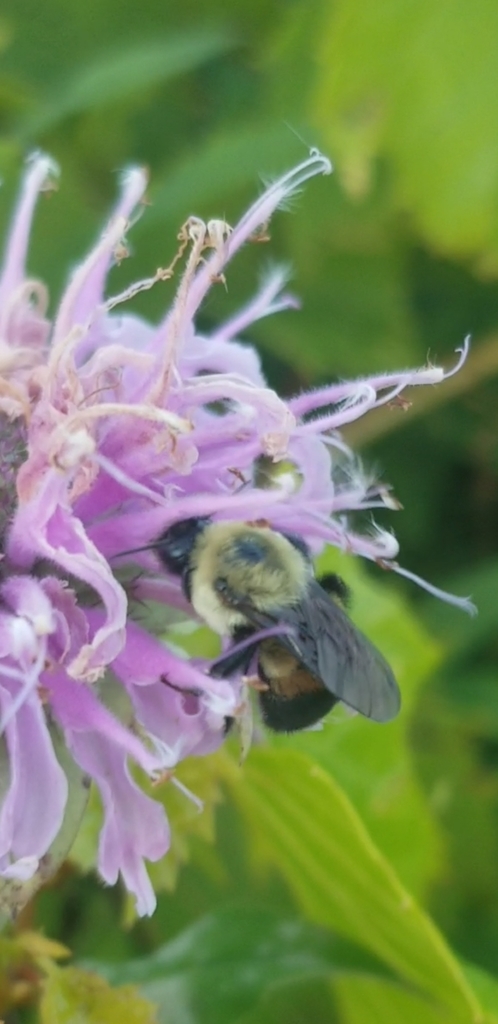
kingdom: Animalia
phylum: Arthropoda
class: Insecta
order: Hymenoptera
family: Apidae
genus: Bombus
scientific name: Bombus griseocollis
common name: Brown-belted bumble bee
